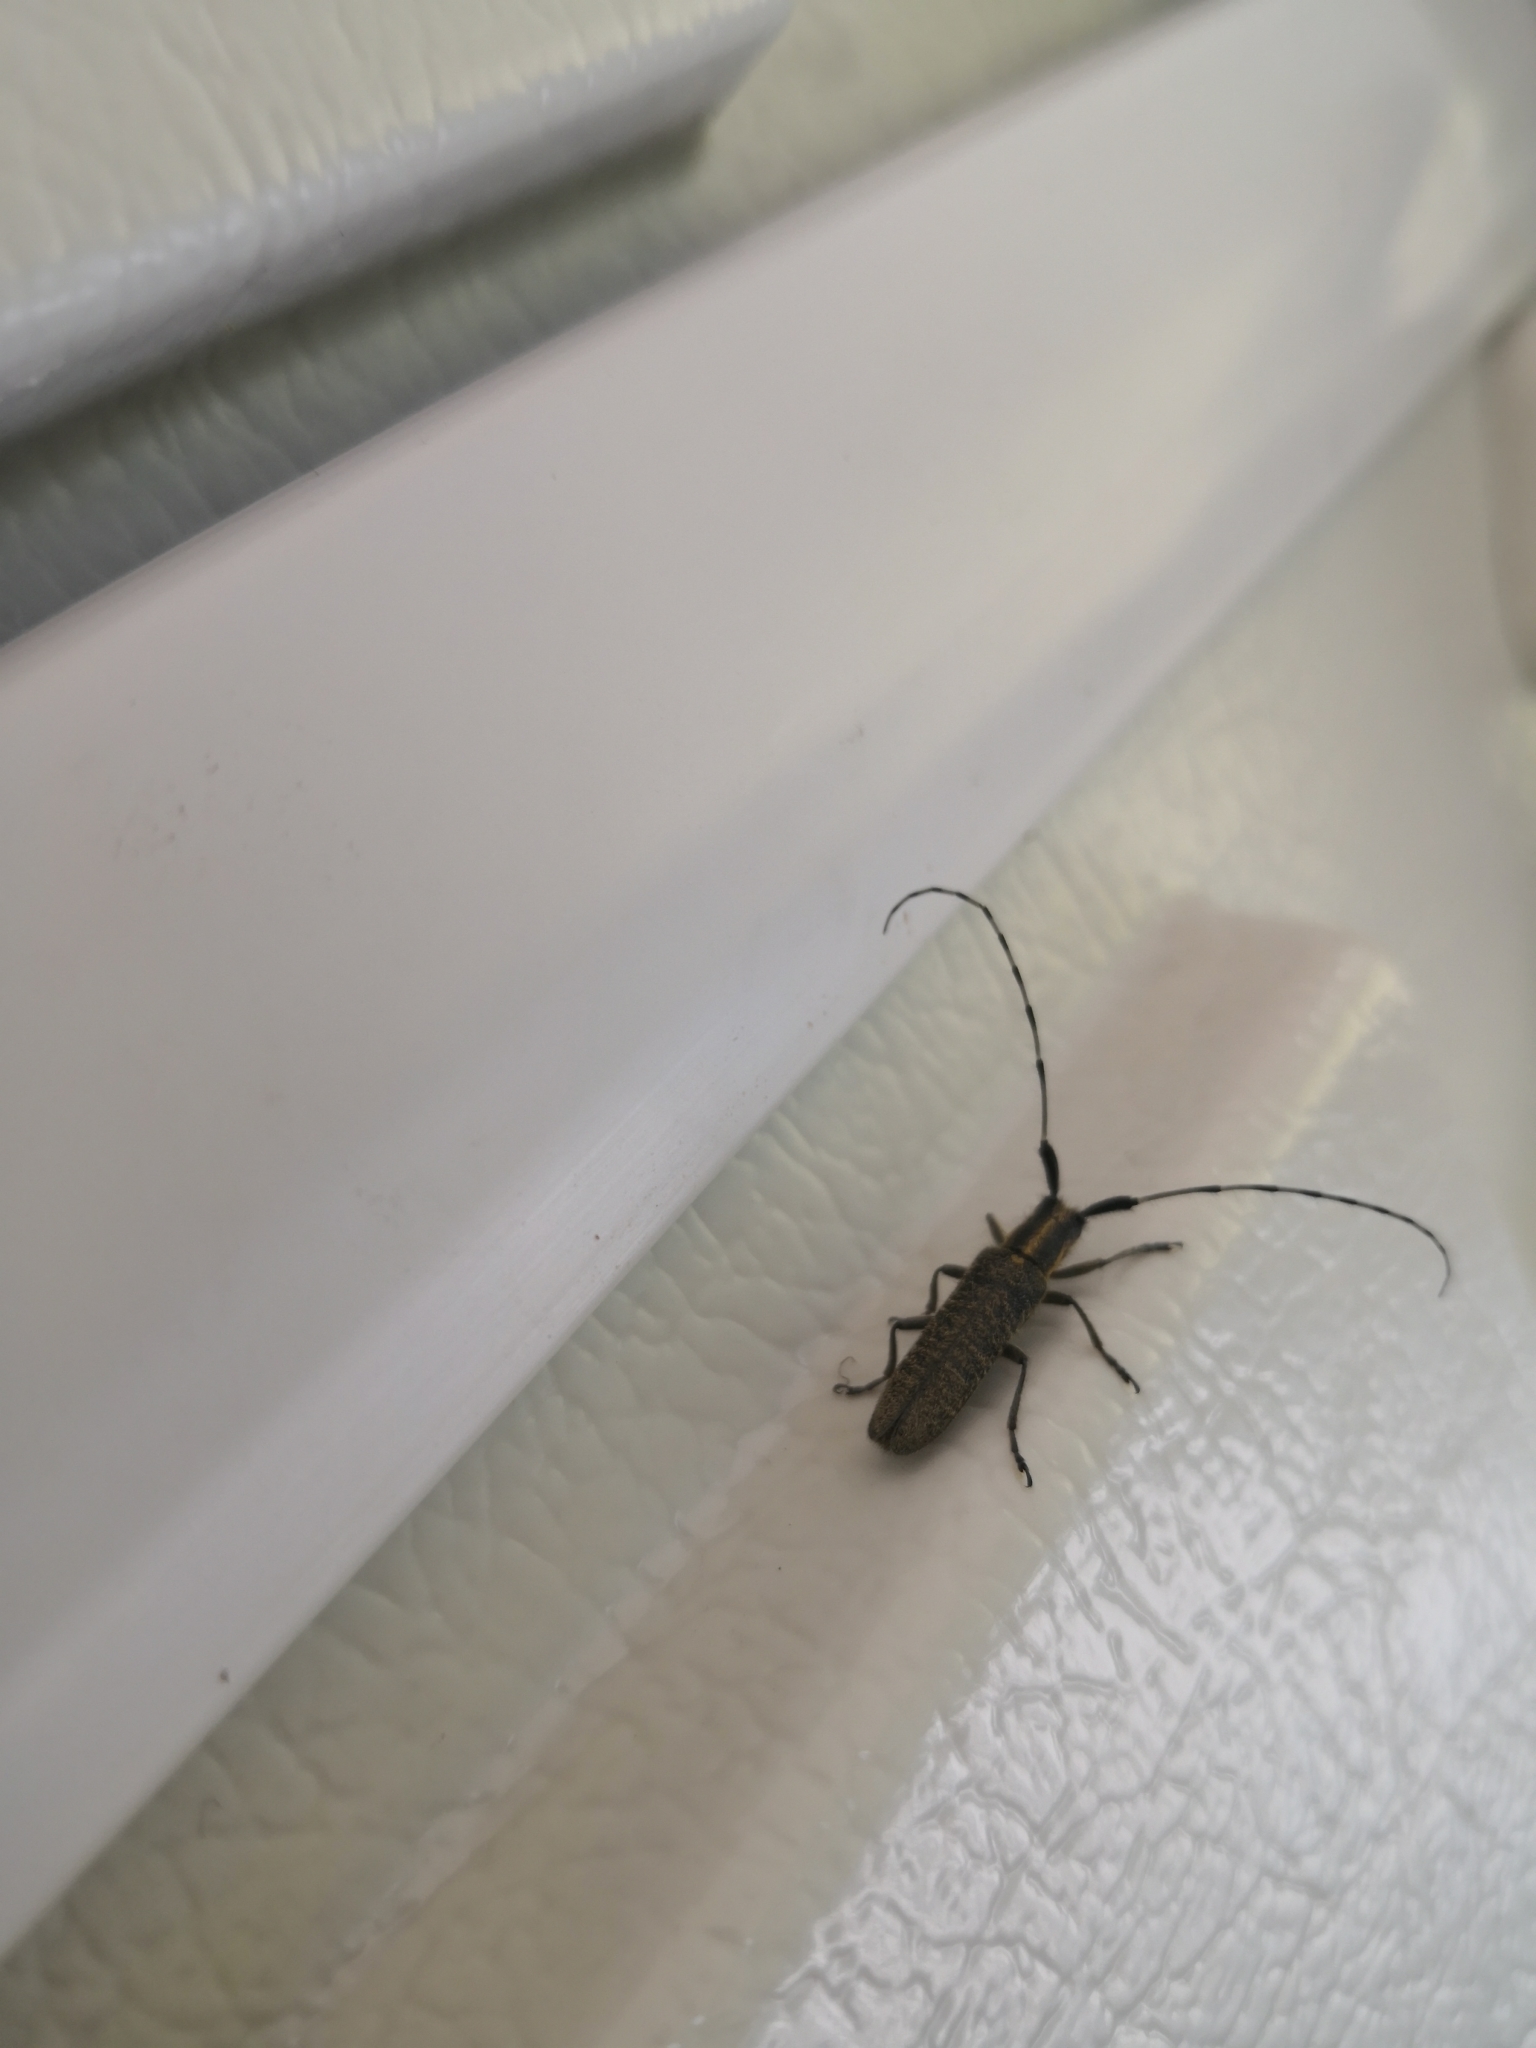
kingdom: Animalia
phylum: Arthropoda
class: Insecta
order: Coleoptera
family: Cerambycidae
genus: Agapanthia
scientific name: Agapanthia villosoviridescens
